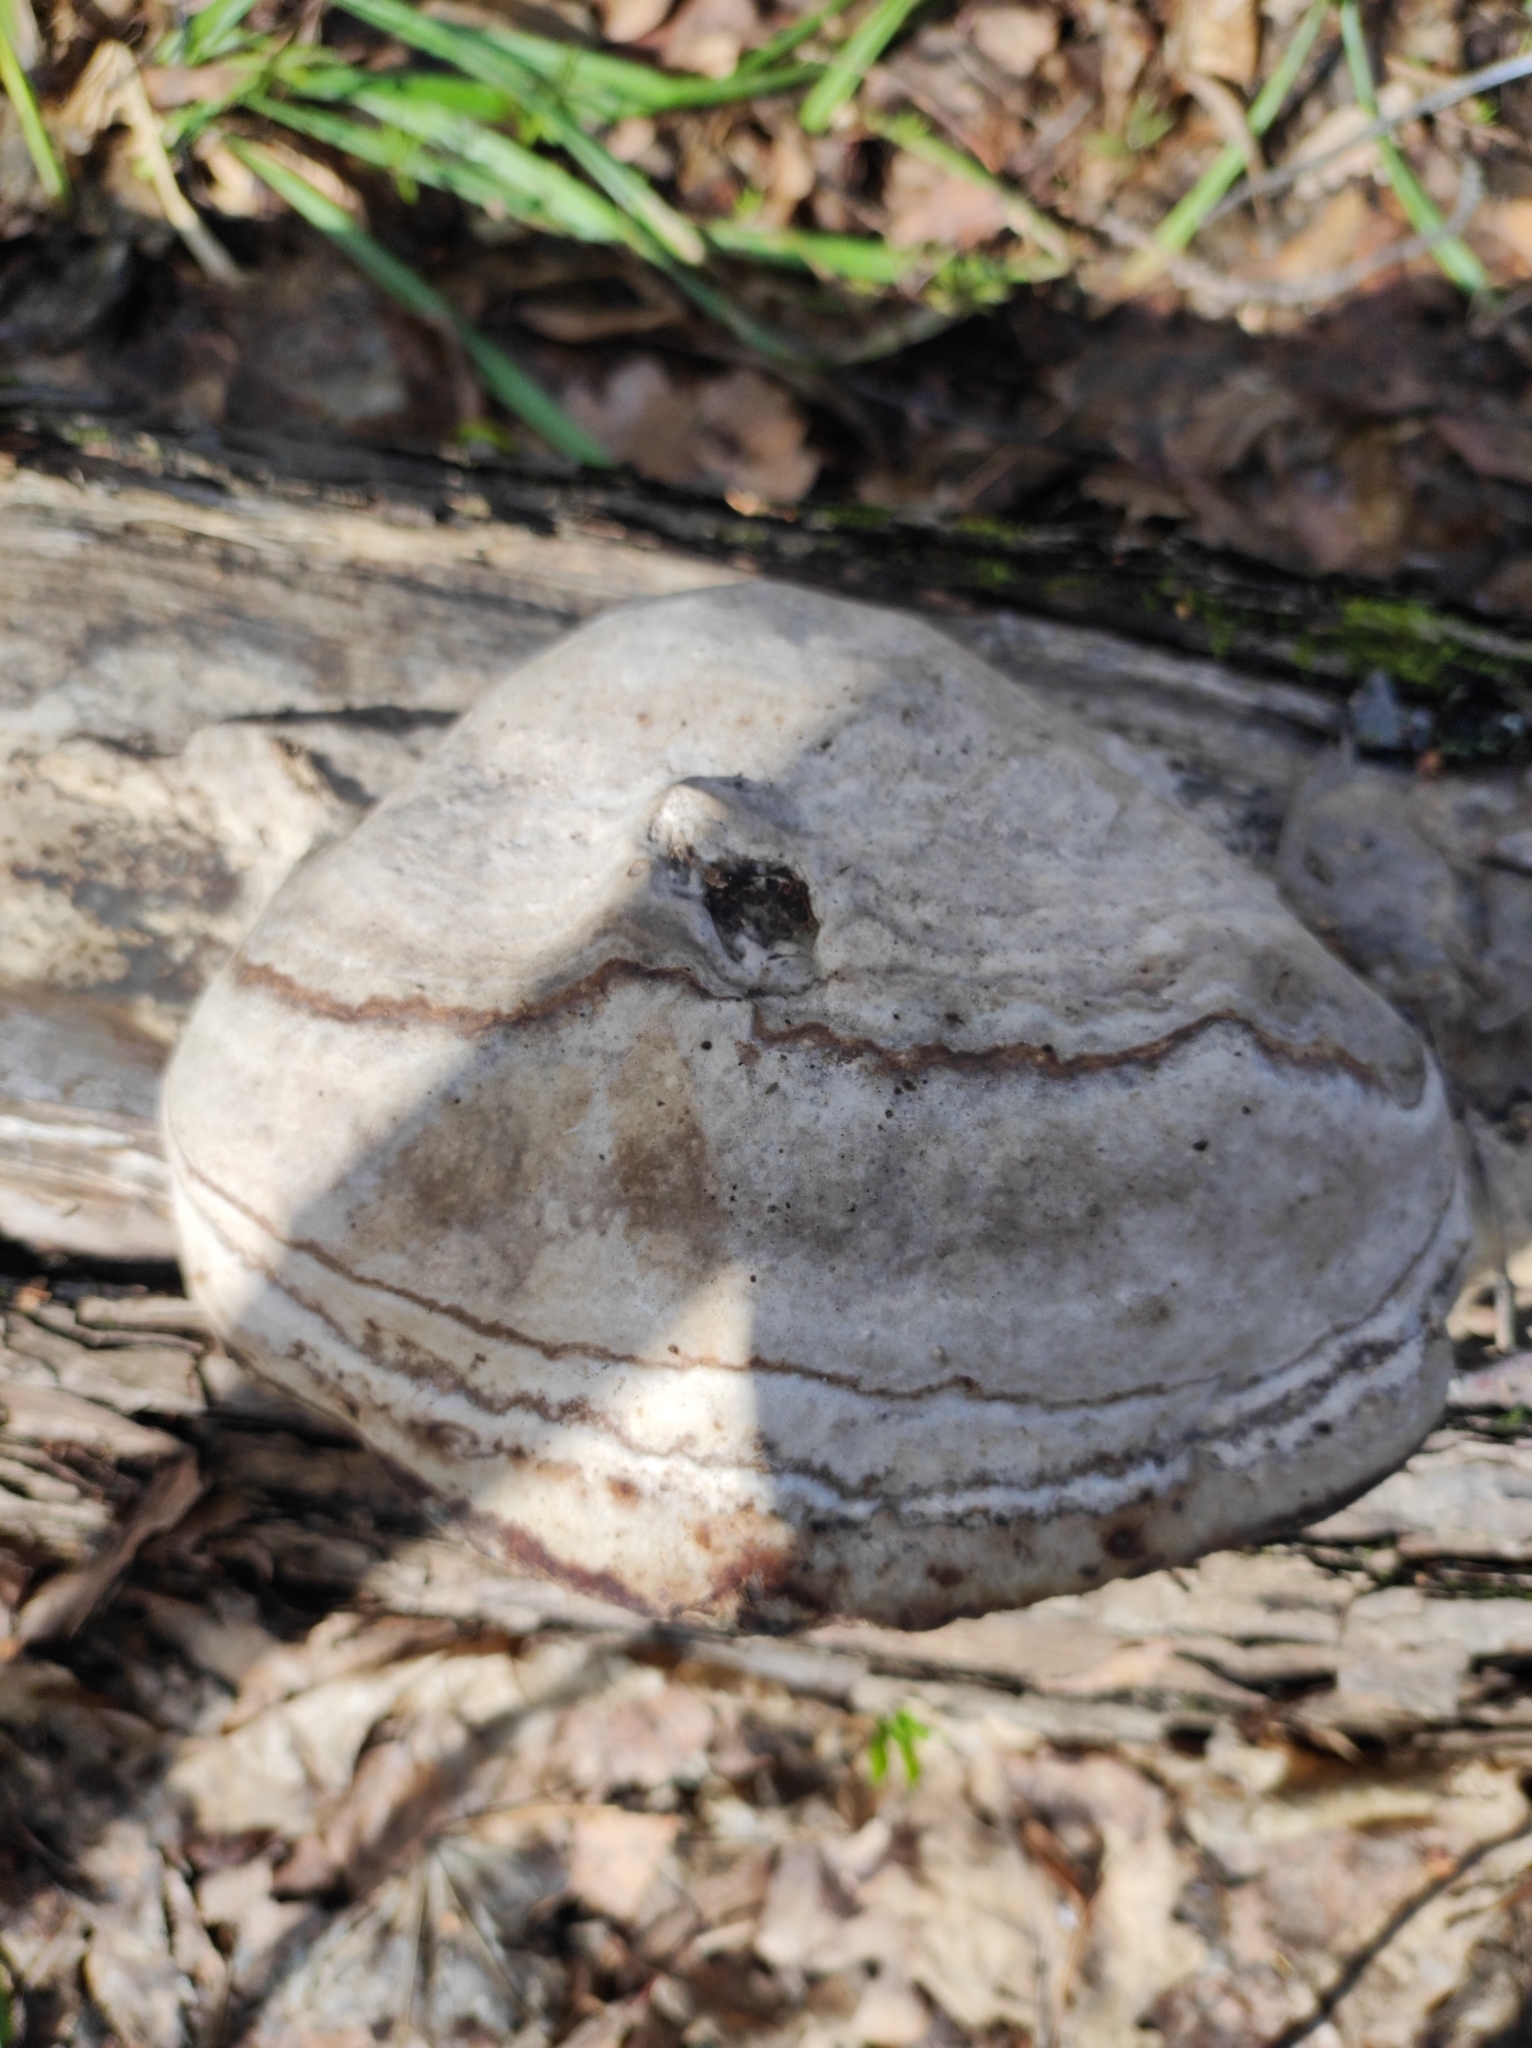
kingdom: Fungi
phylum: Basidiomycota
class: Agaricomycetes
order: Polyporales
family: Polyporaceae
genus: Fomes
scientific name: Fomes fomentarius
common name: Hoof fungus
